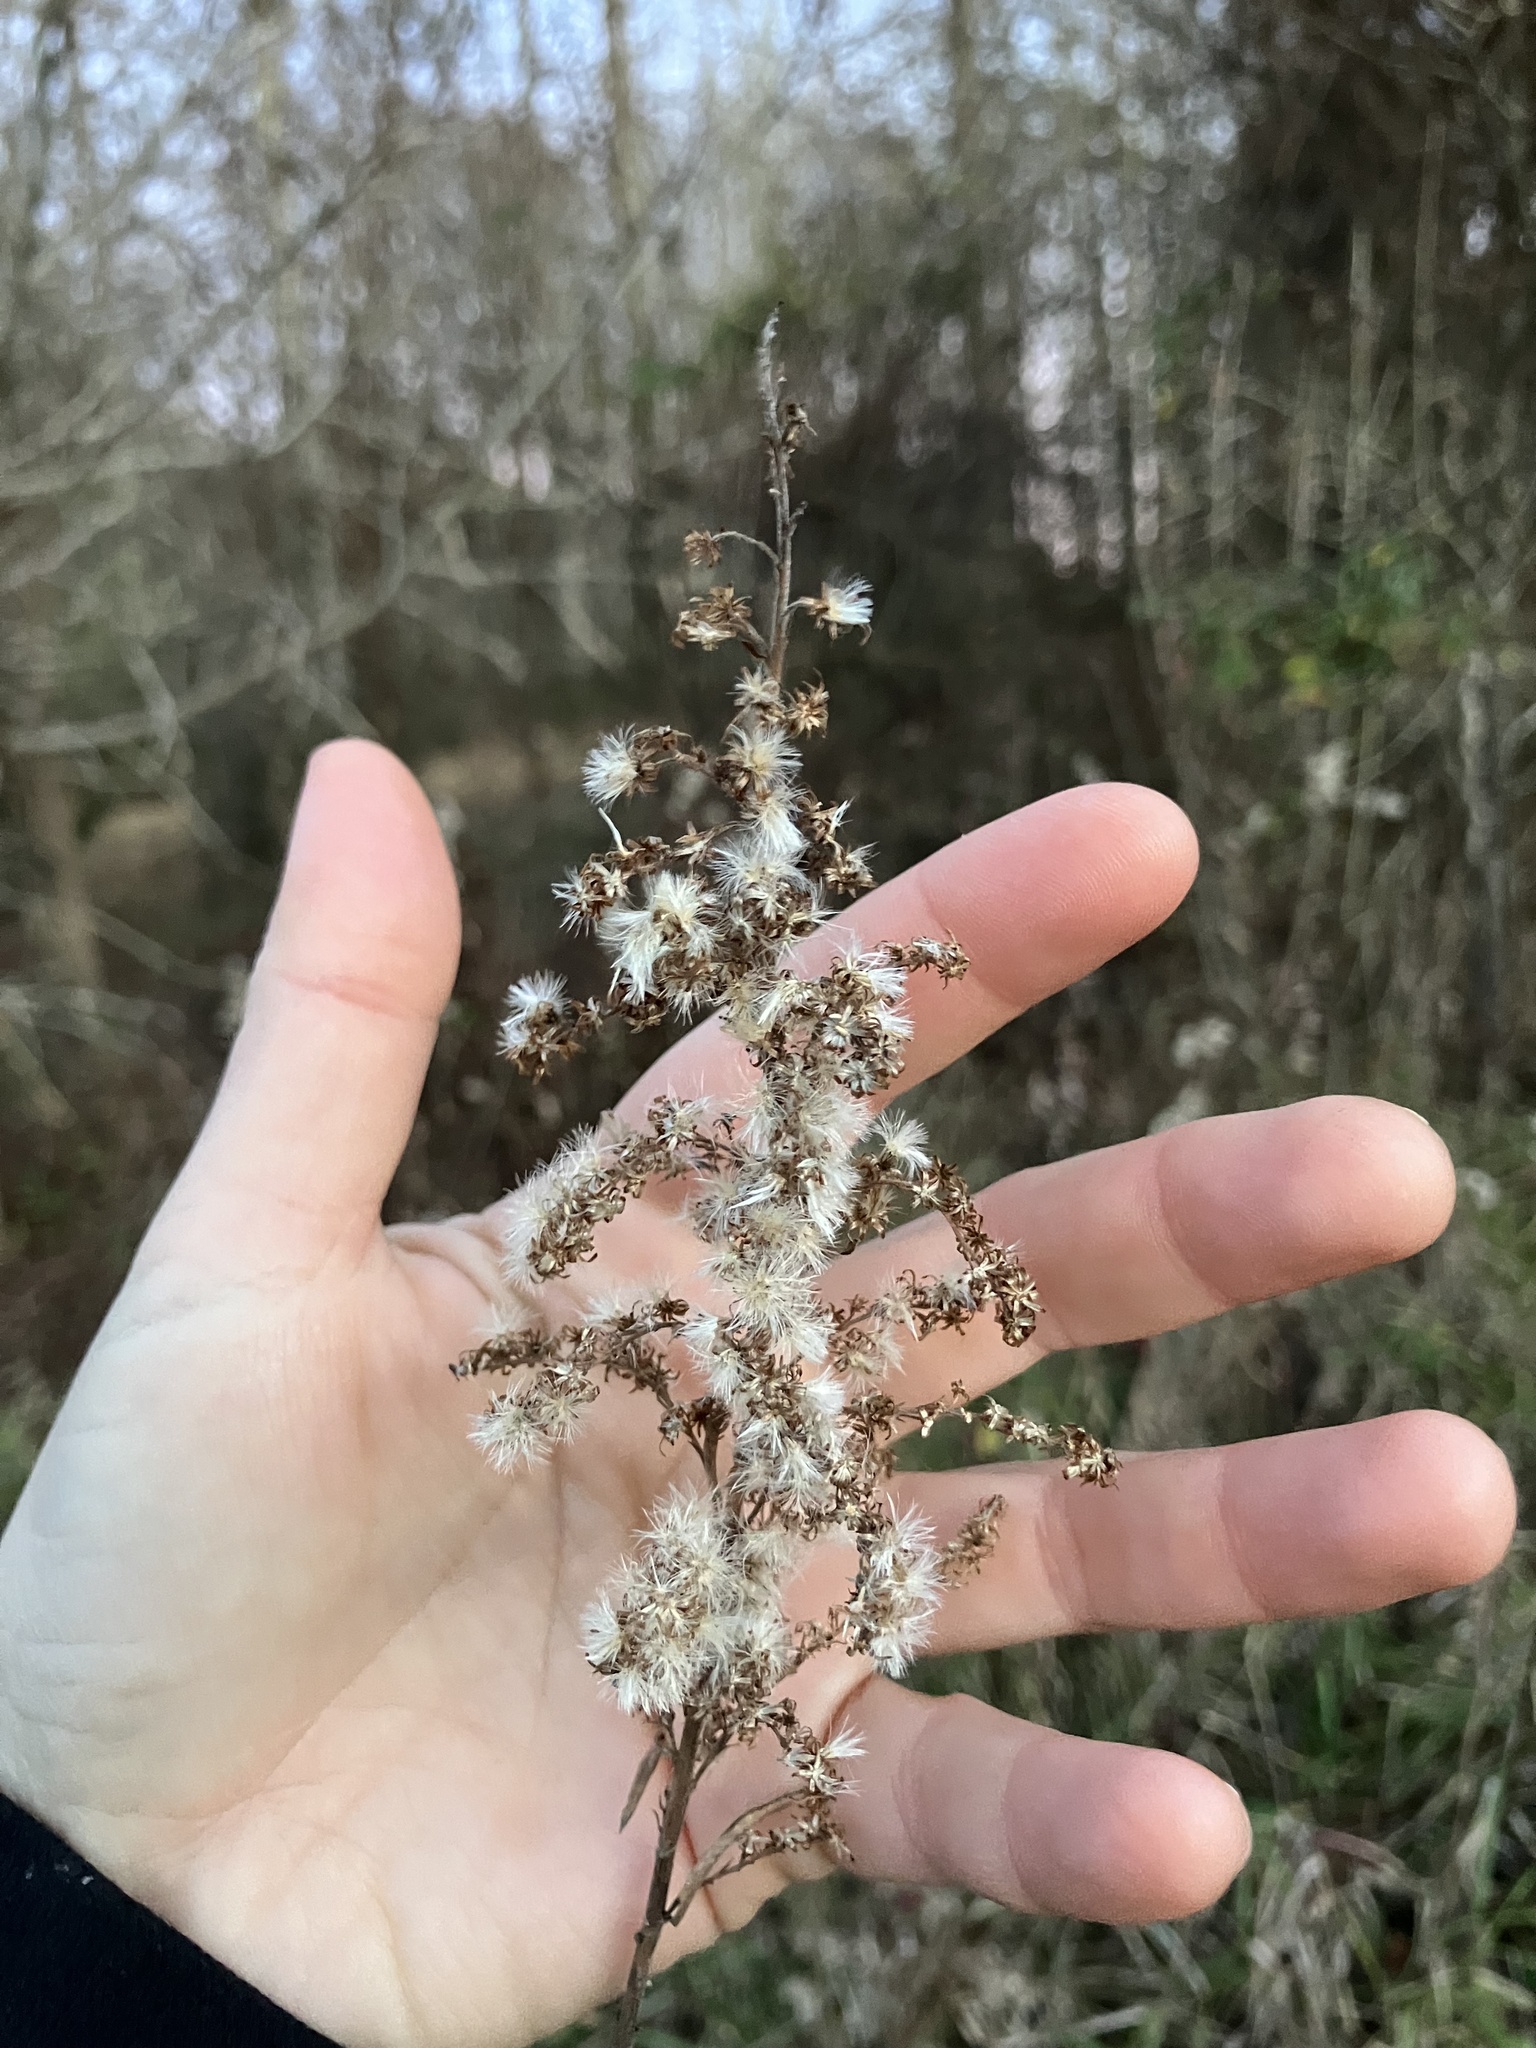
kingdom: Plantae
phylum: Tracheophyta
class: Magnoliopsida
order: Asterales
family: Asteraceae
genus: Solidago
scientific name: Solidago altissima
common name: Late goldenrod
